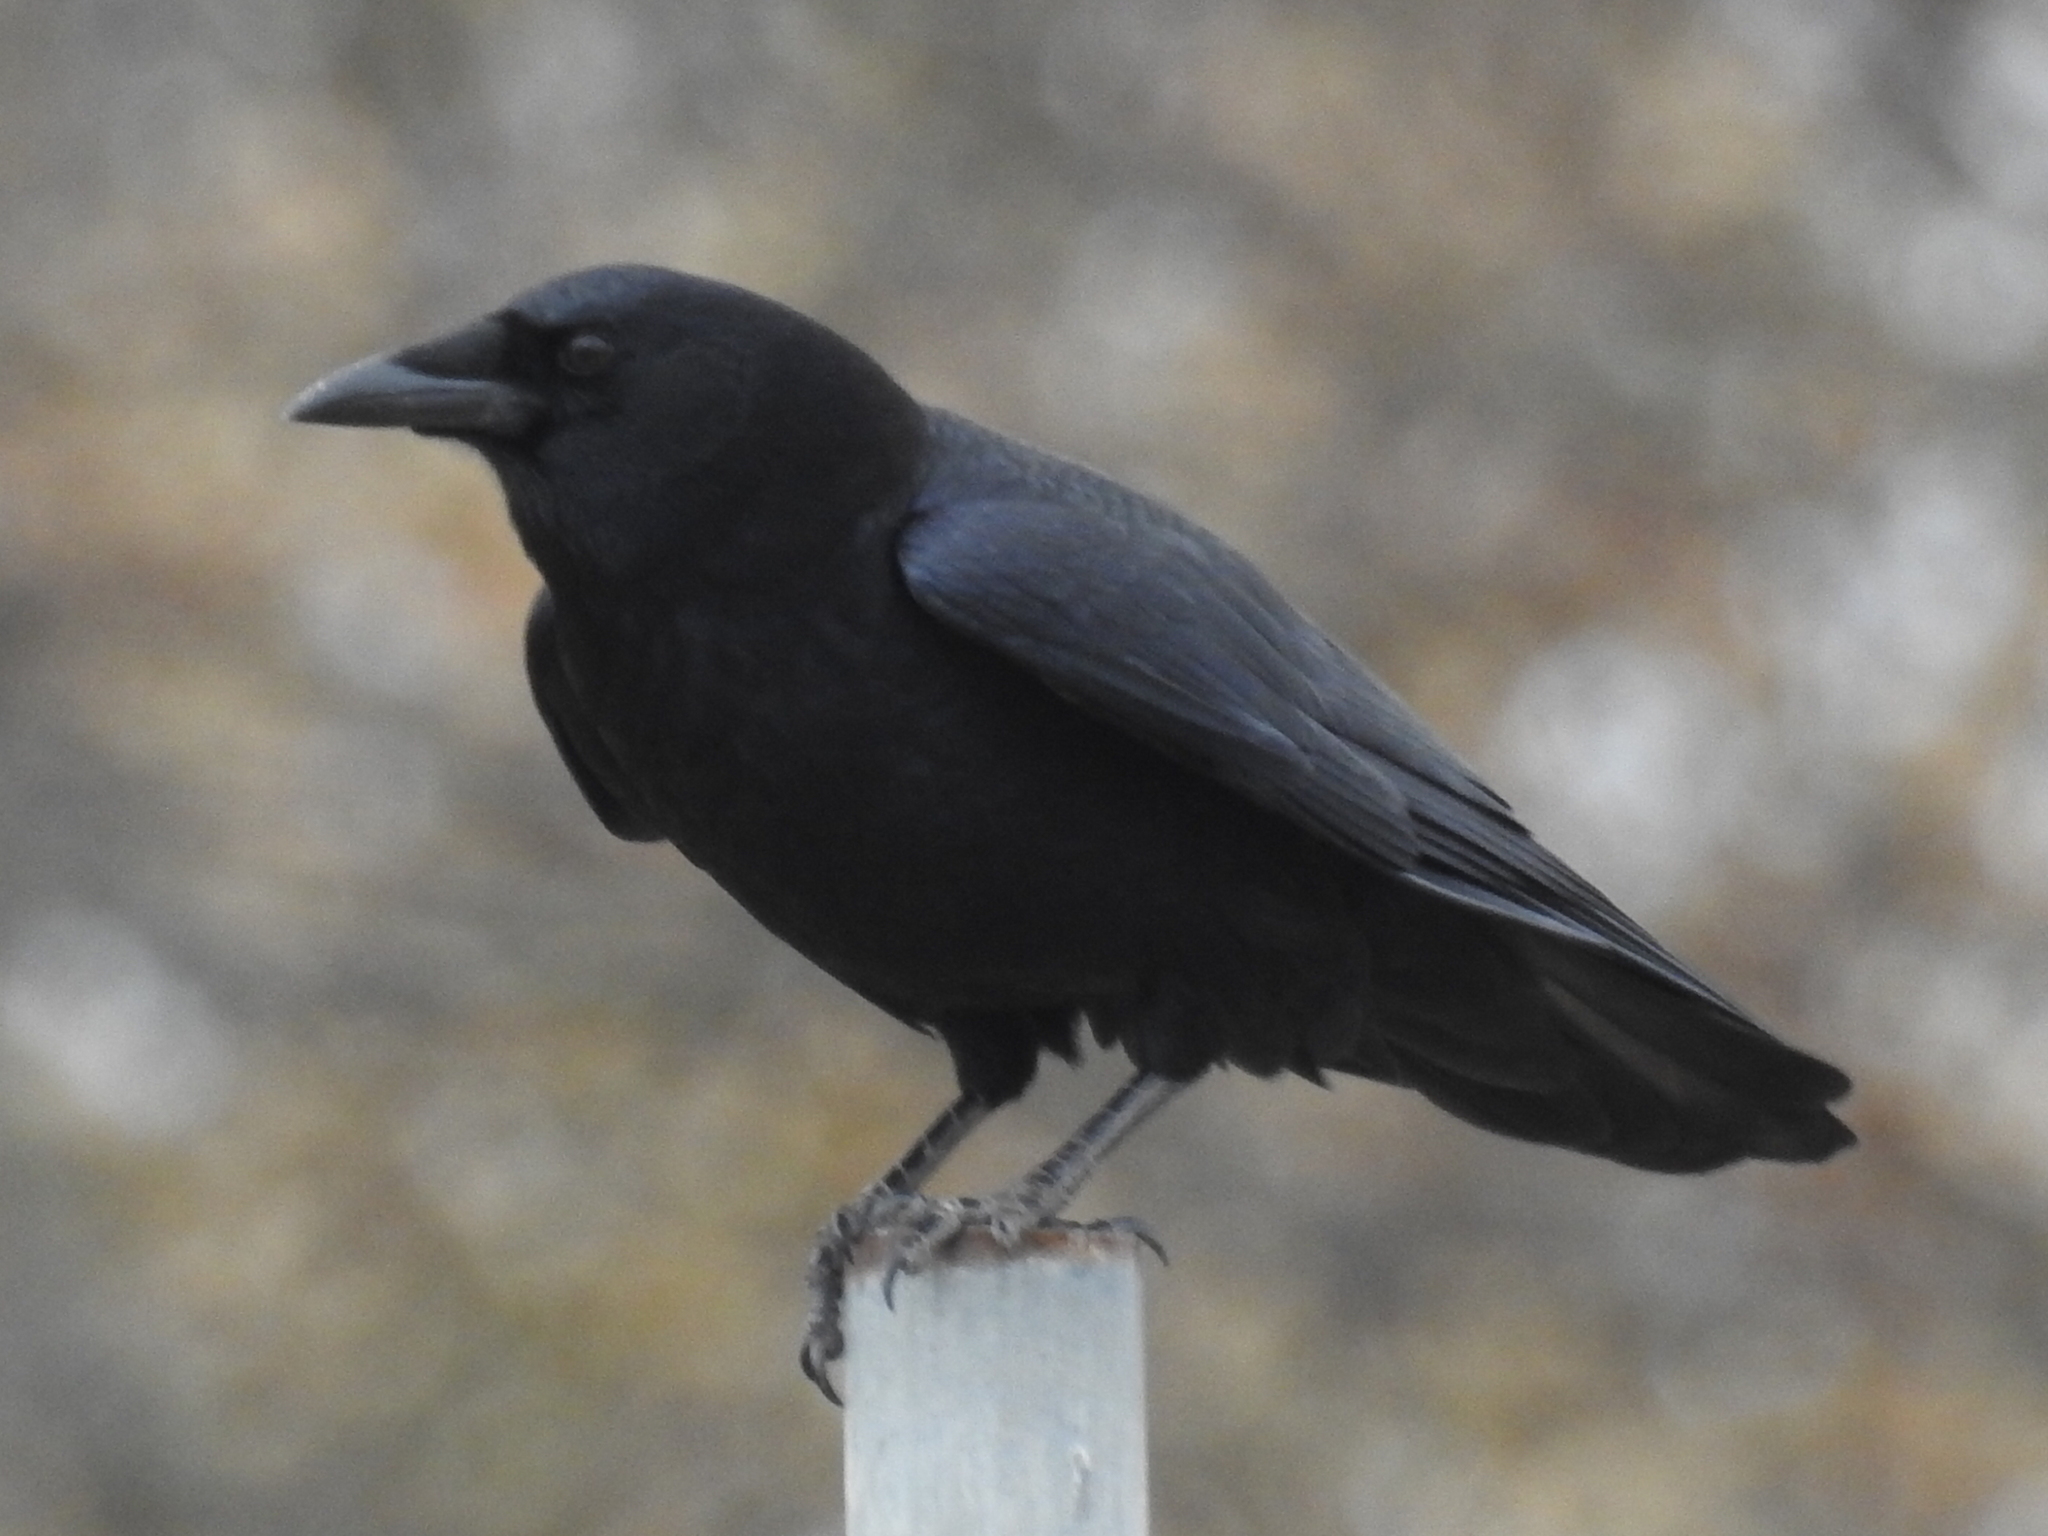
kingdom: Animalia
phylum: Chordata
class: Aves
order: Passeriformes
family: Corvidae
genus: Corvus
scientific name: Corvus brachyrhynchos
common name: American crow
